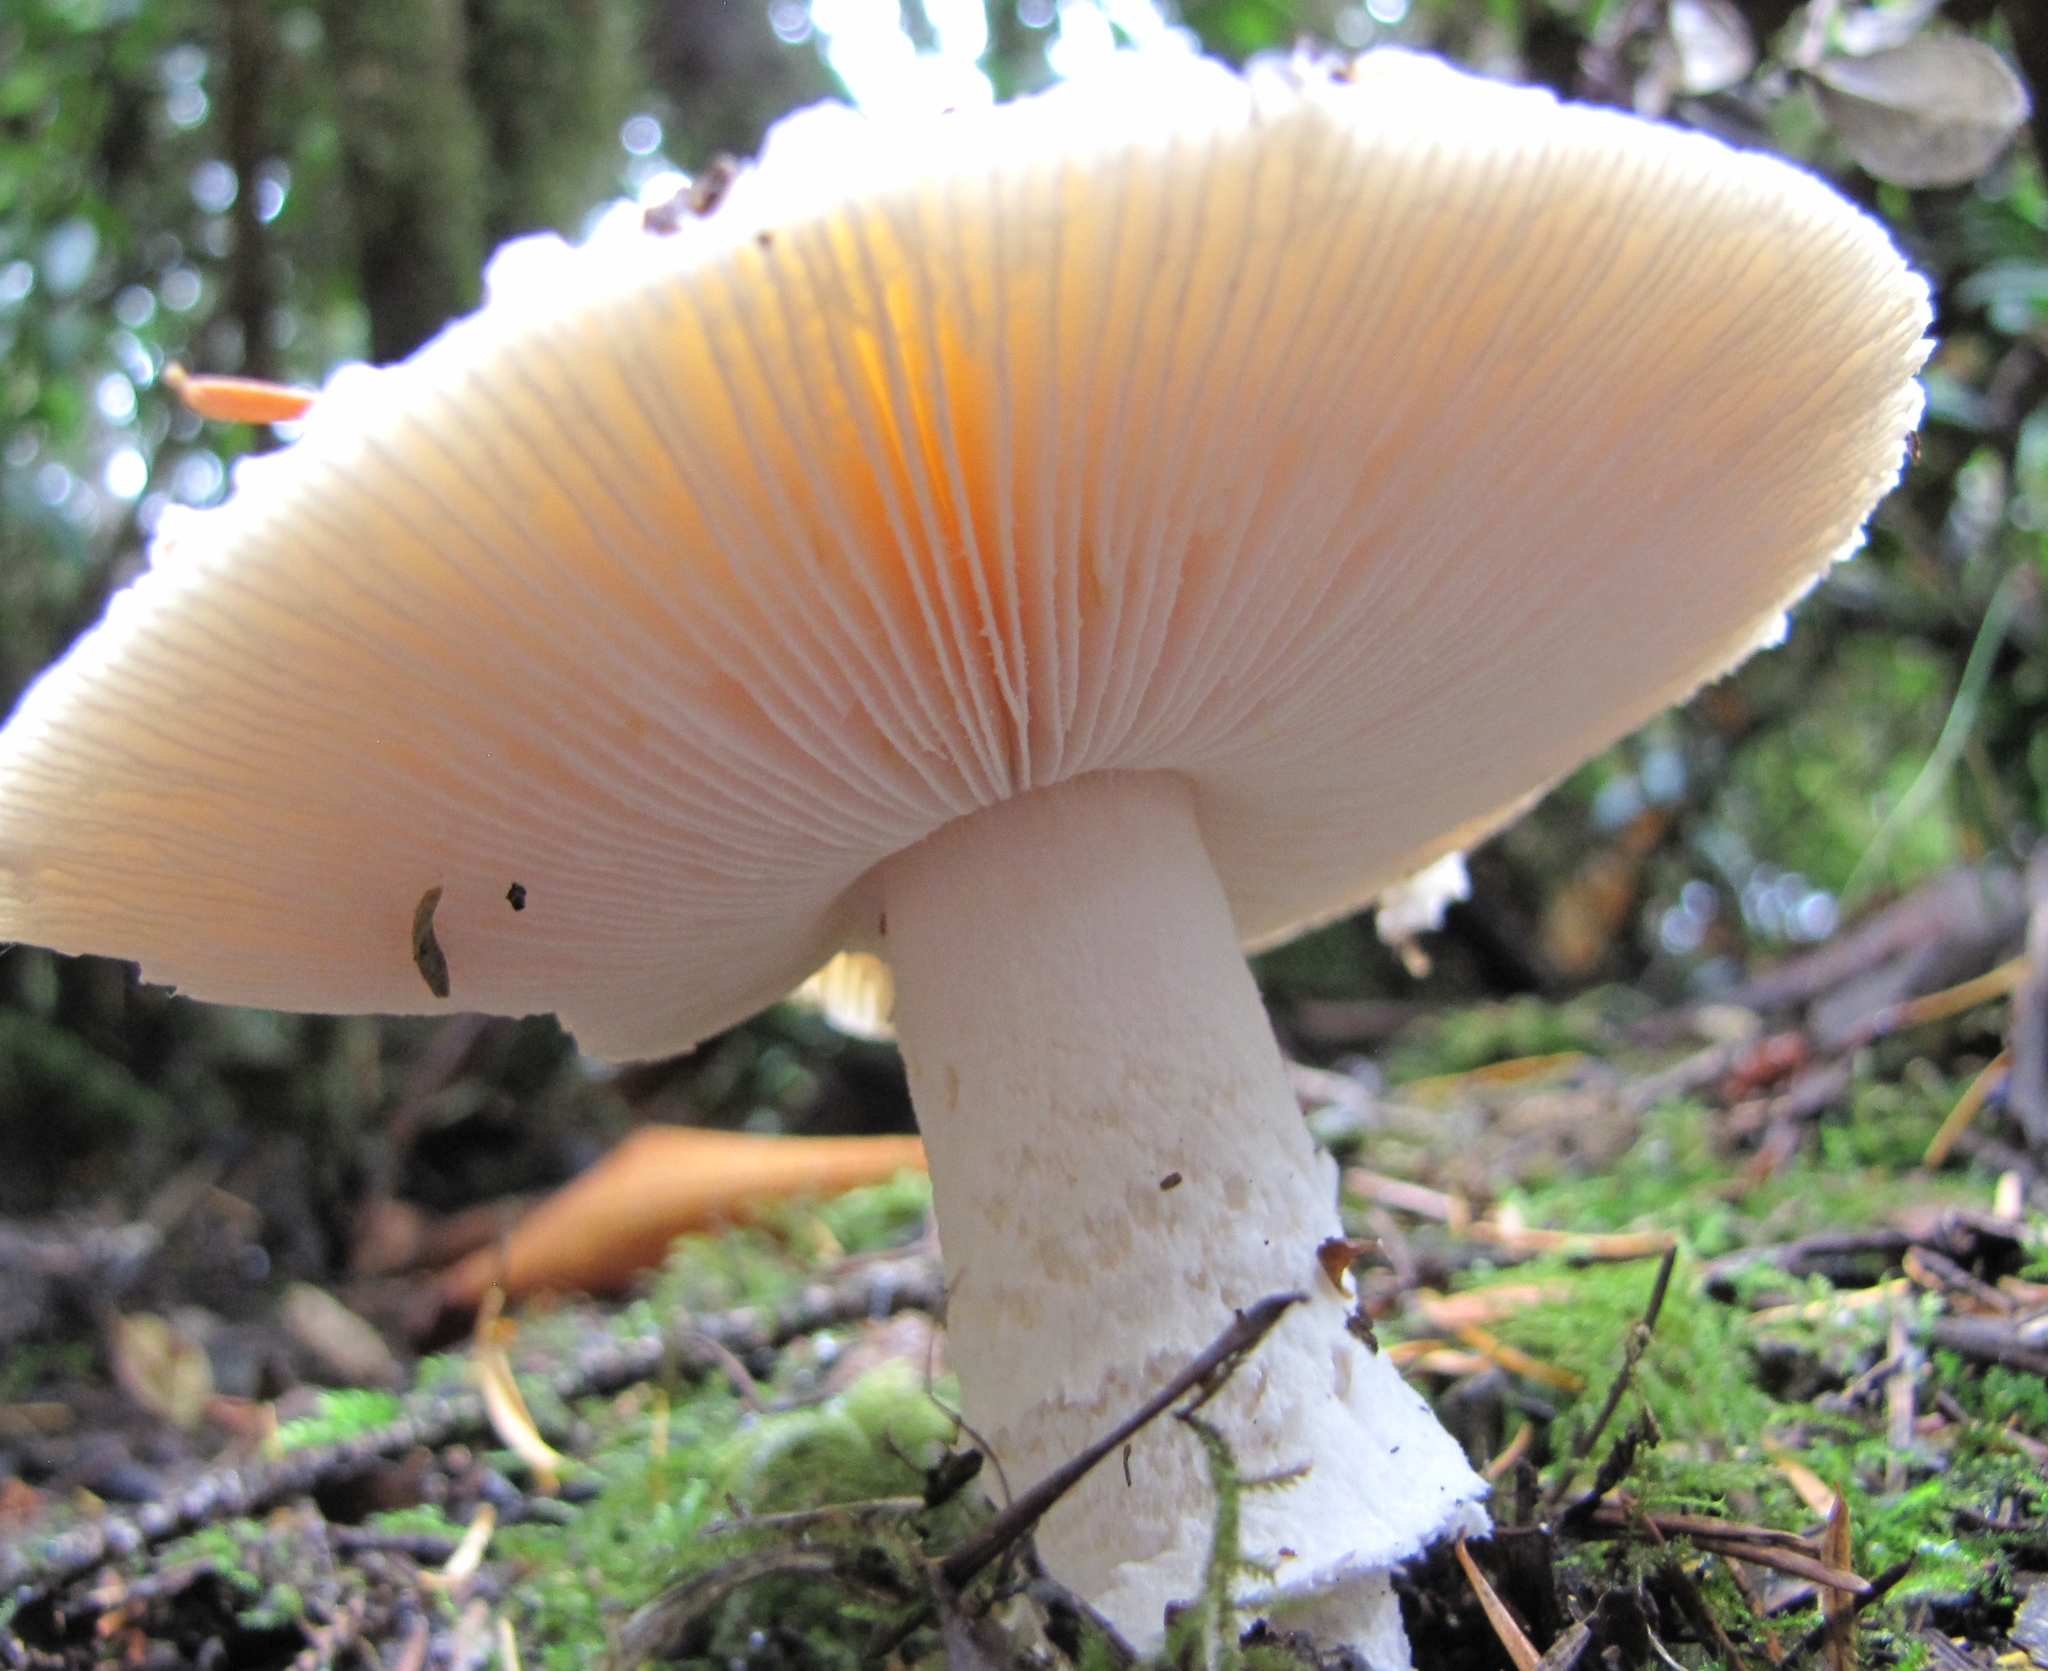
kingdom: Fungi
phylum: Basidiomycota
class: Agaricomycetes
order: Agaricales
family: Amanitaceae
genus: Amanita
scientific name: Amanita pantherinoides
